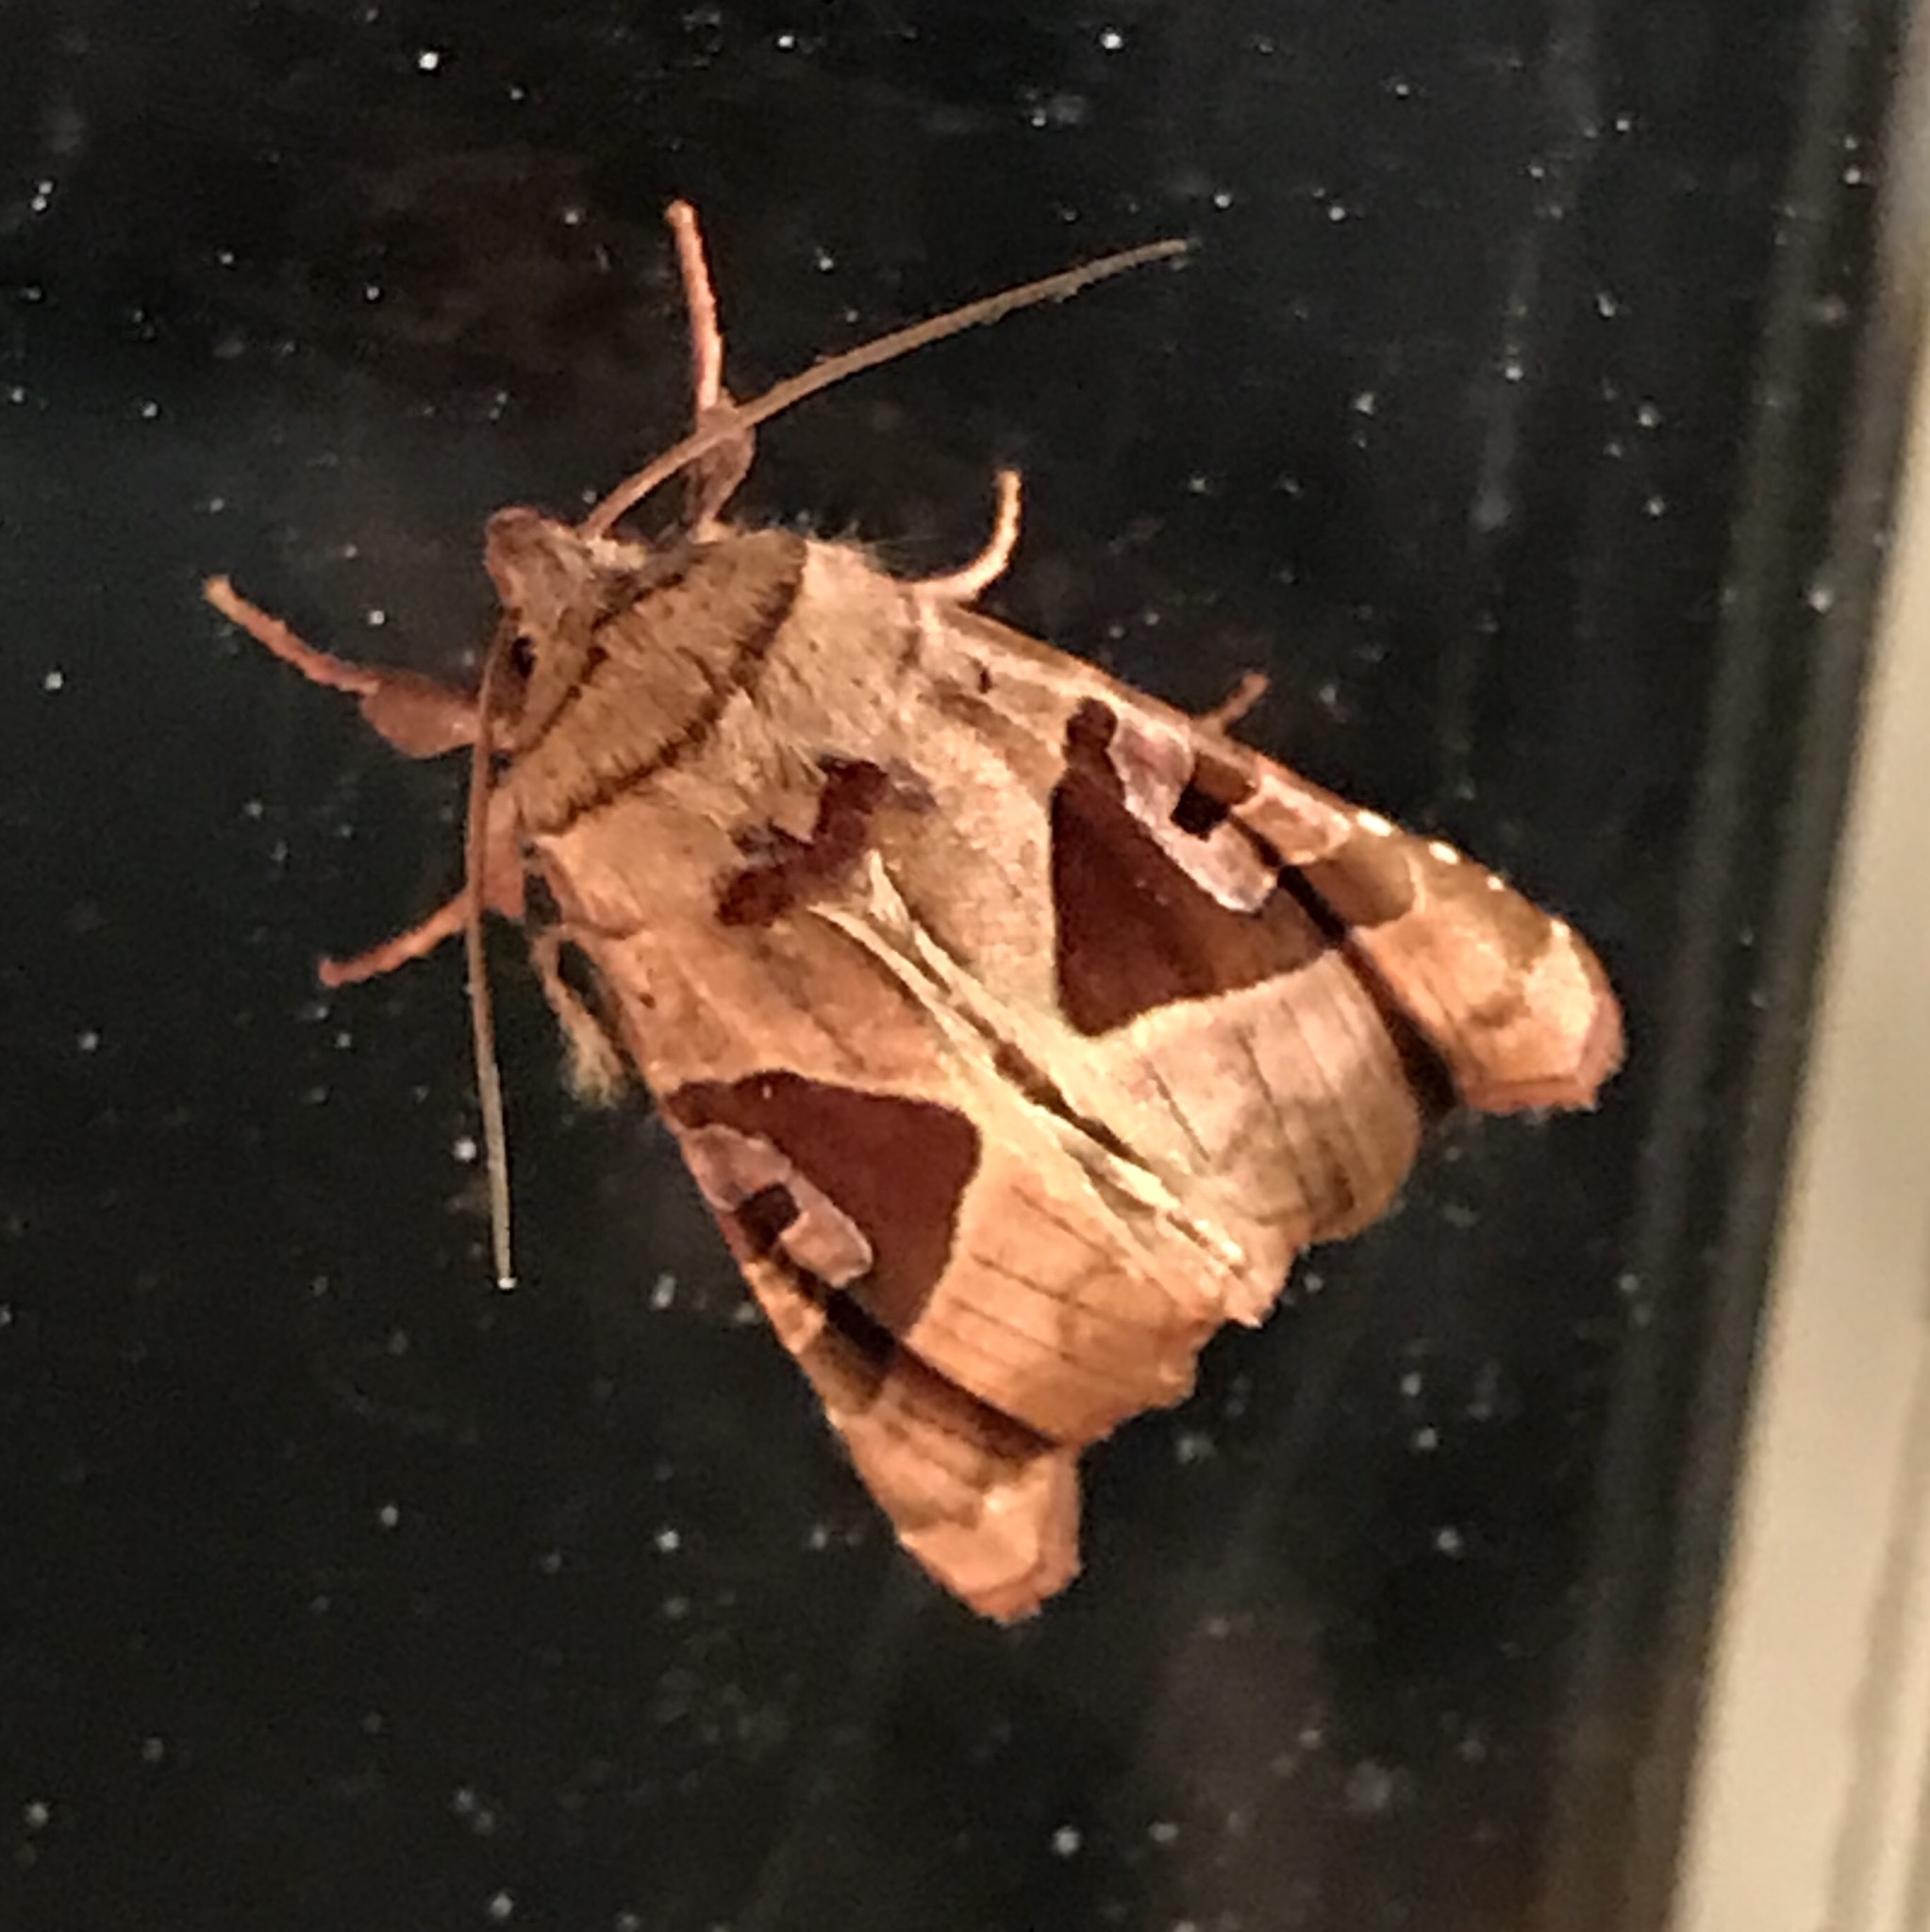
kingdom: Animalia
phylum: Arthropoda
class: Insecta
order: Lepidoptera
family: Noctuidae
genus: Conservula
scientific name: Conservula anodonta
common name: Sharp angle shades
